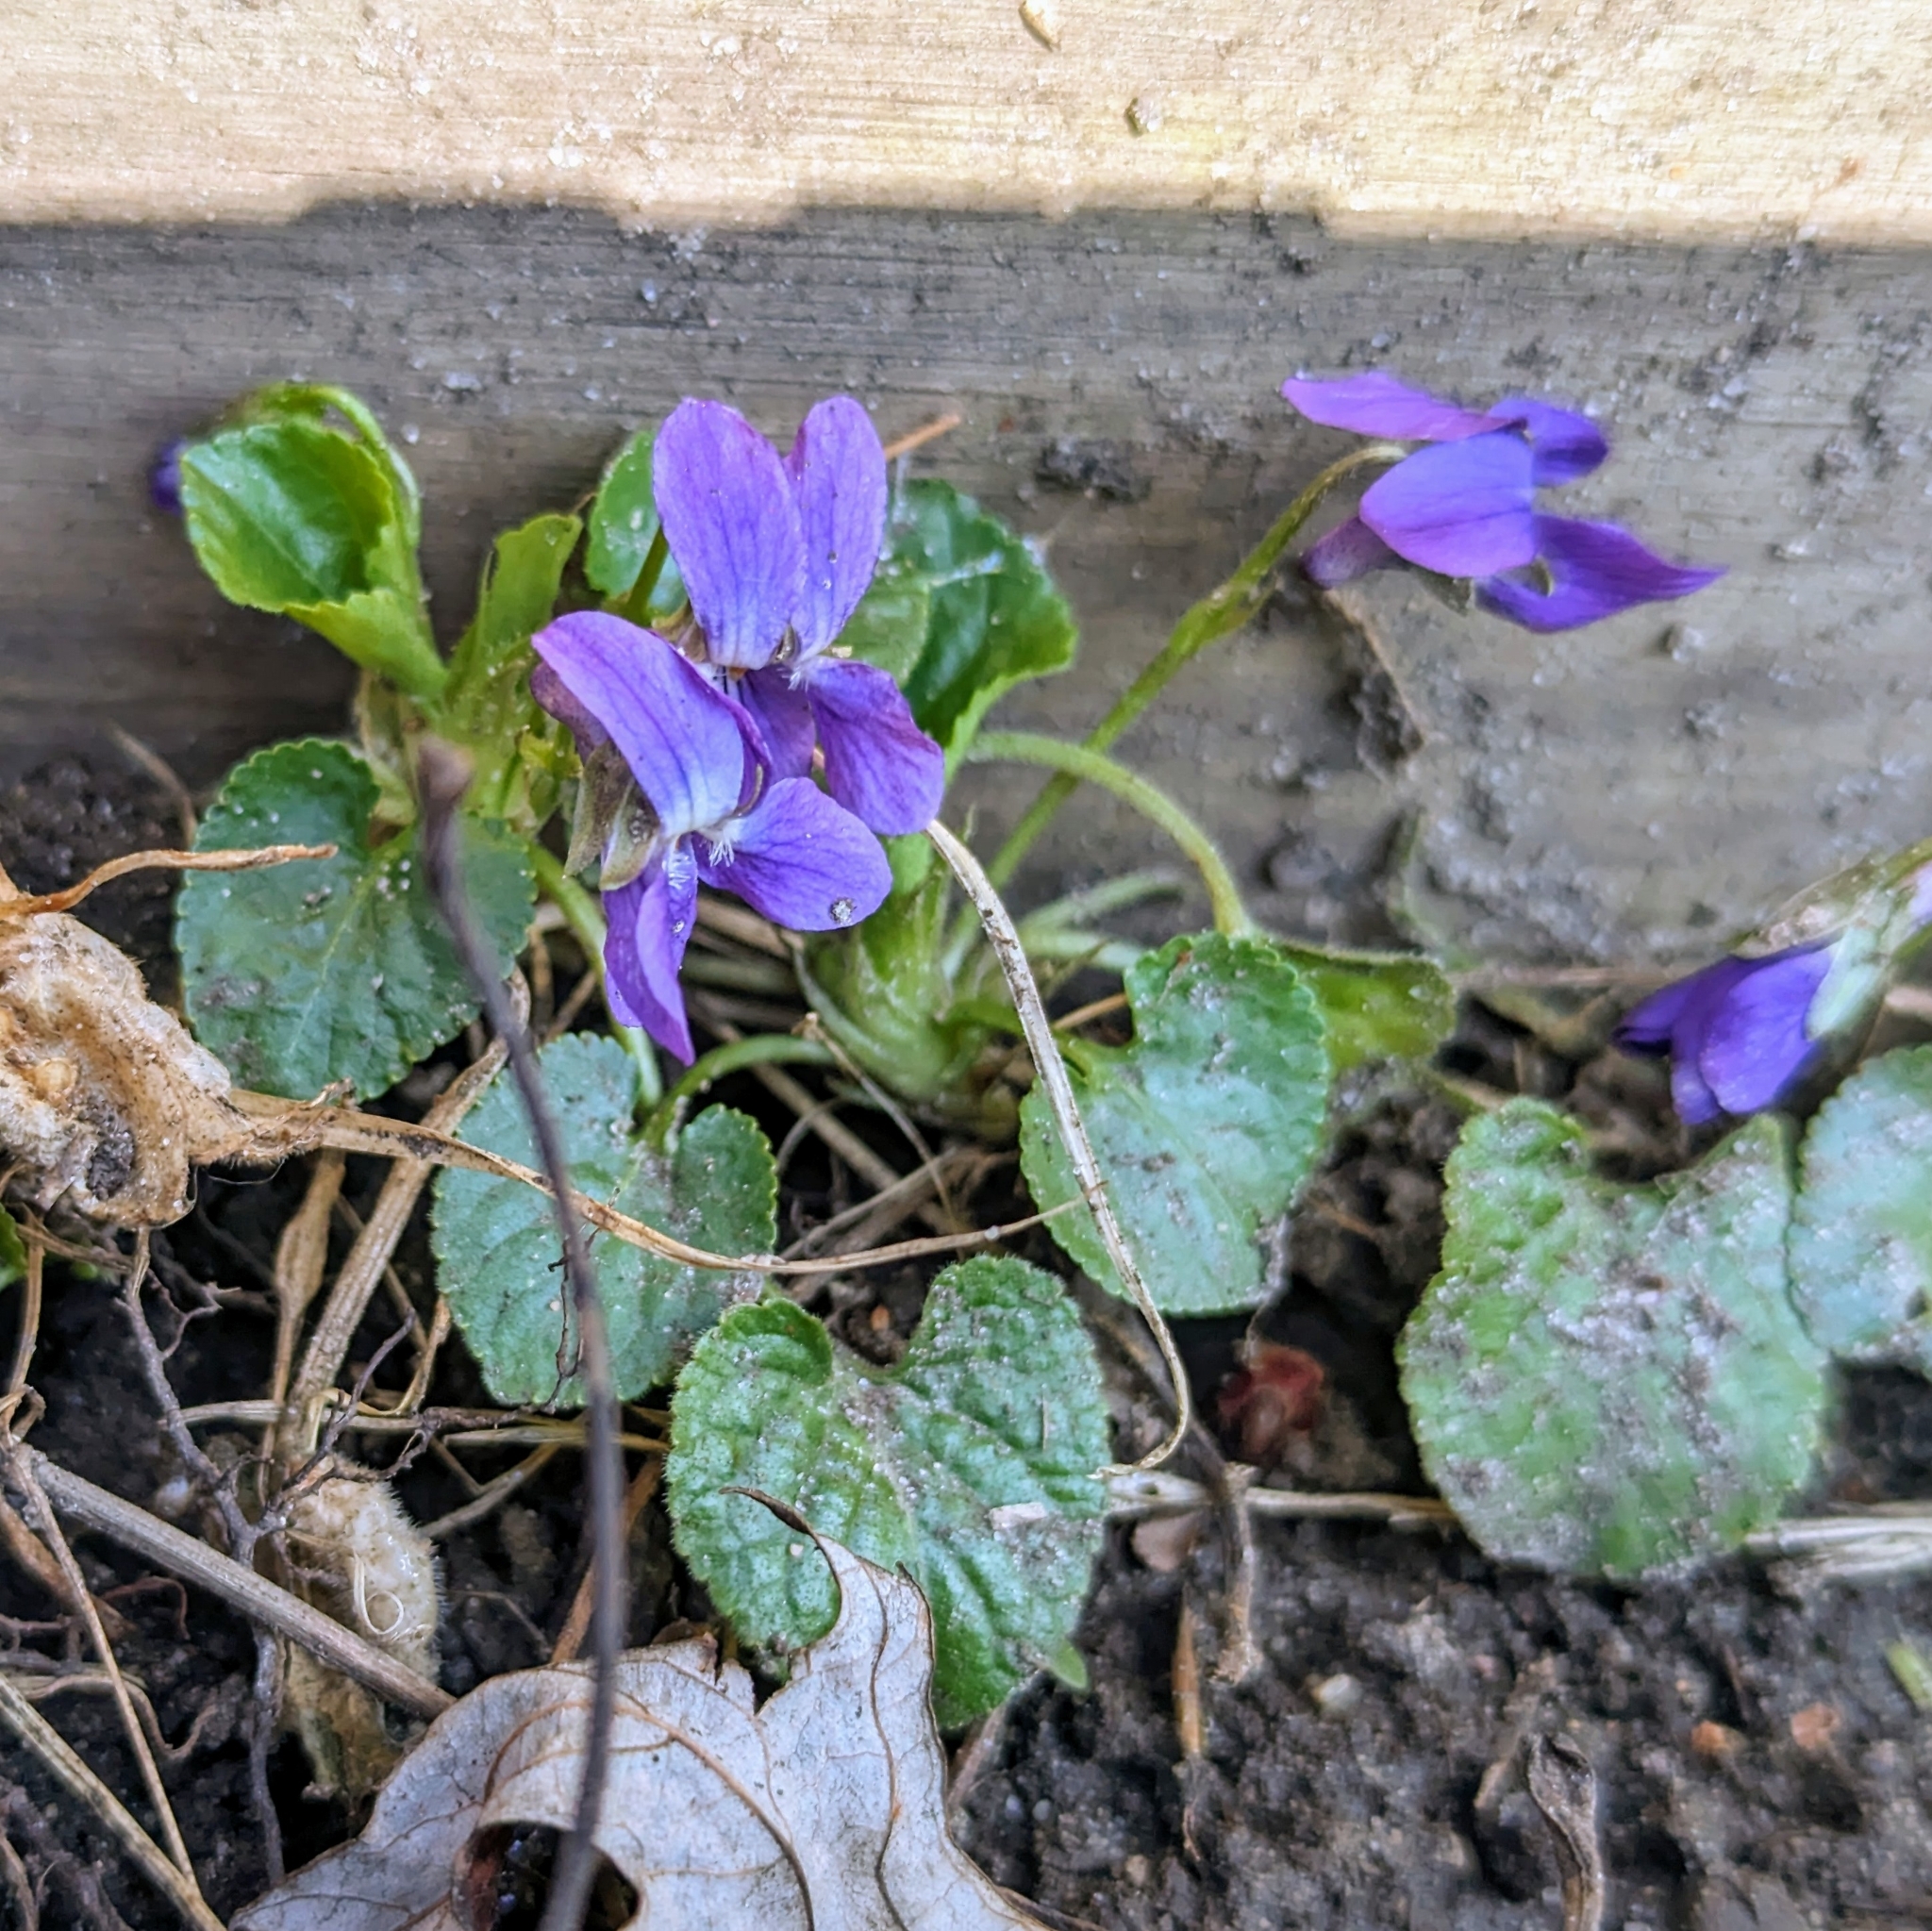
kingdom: Plantae
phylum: Tracheophyta
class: Magnoliopsida
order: Malpighiales
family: Violaceae
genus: Viola
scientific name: Viola odorata
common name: Sweet violet
